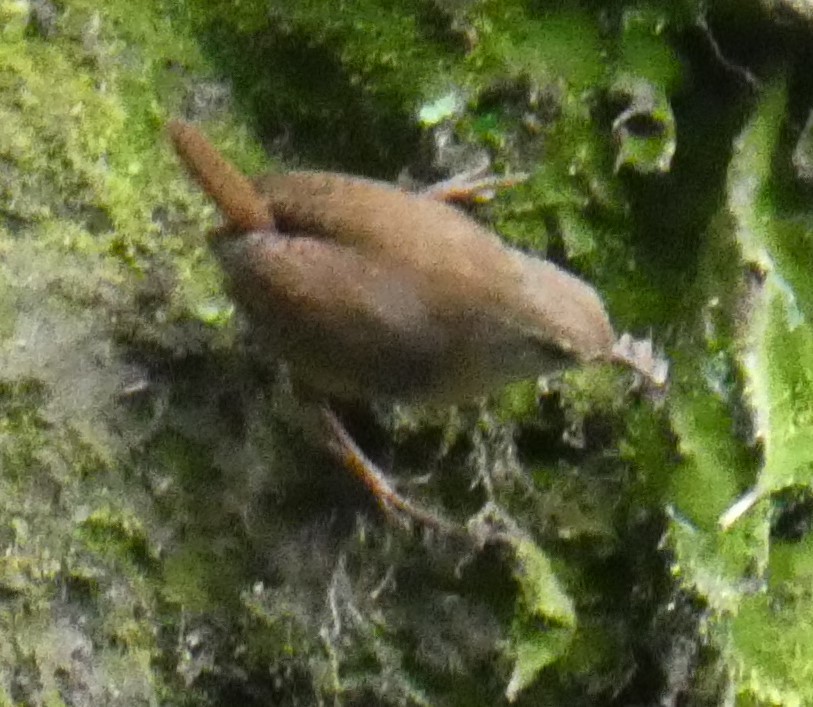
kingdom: Animalia
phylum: Chordata
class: Aves
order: Passeriformes
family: Troglodytidae
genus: Troglodytes
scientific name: Troglodytes troglodytes
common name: Eurasian wren
